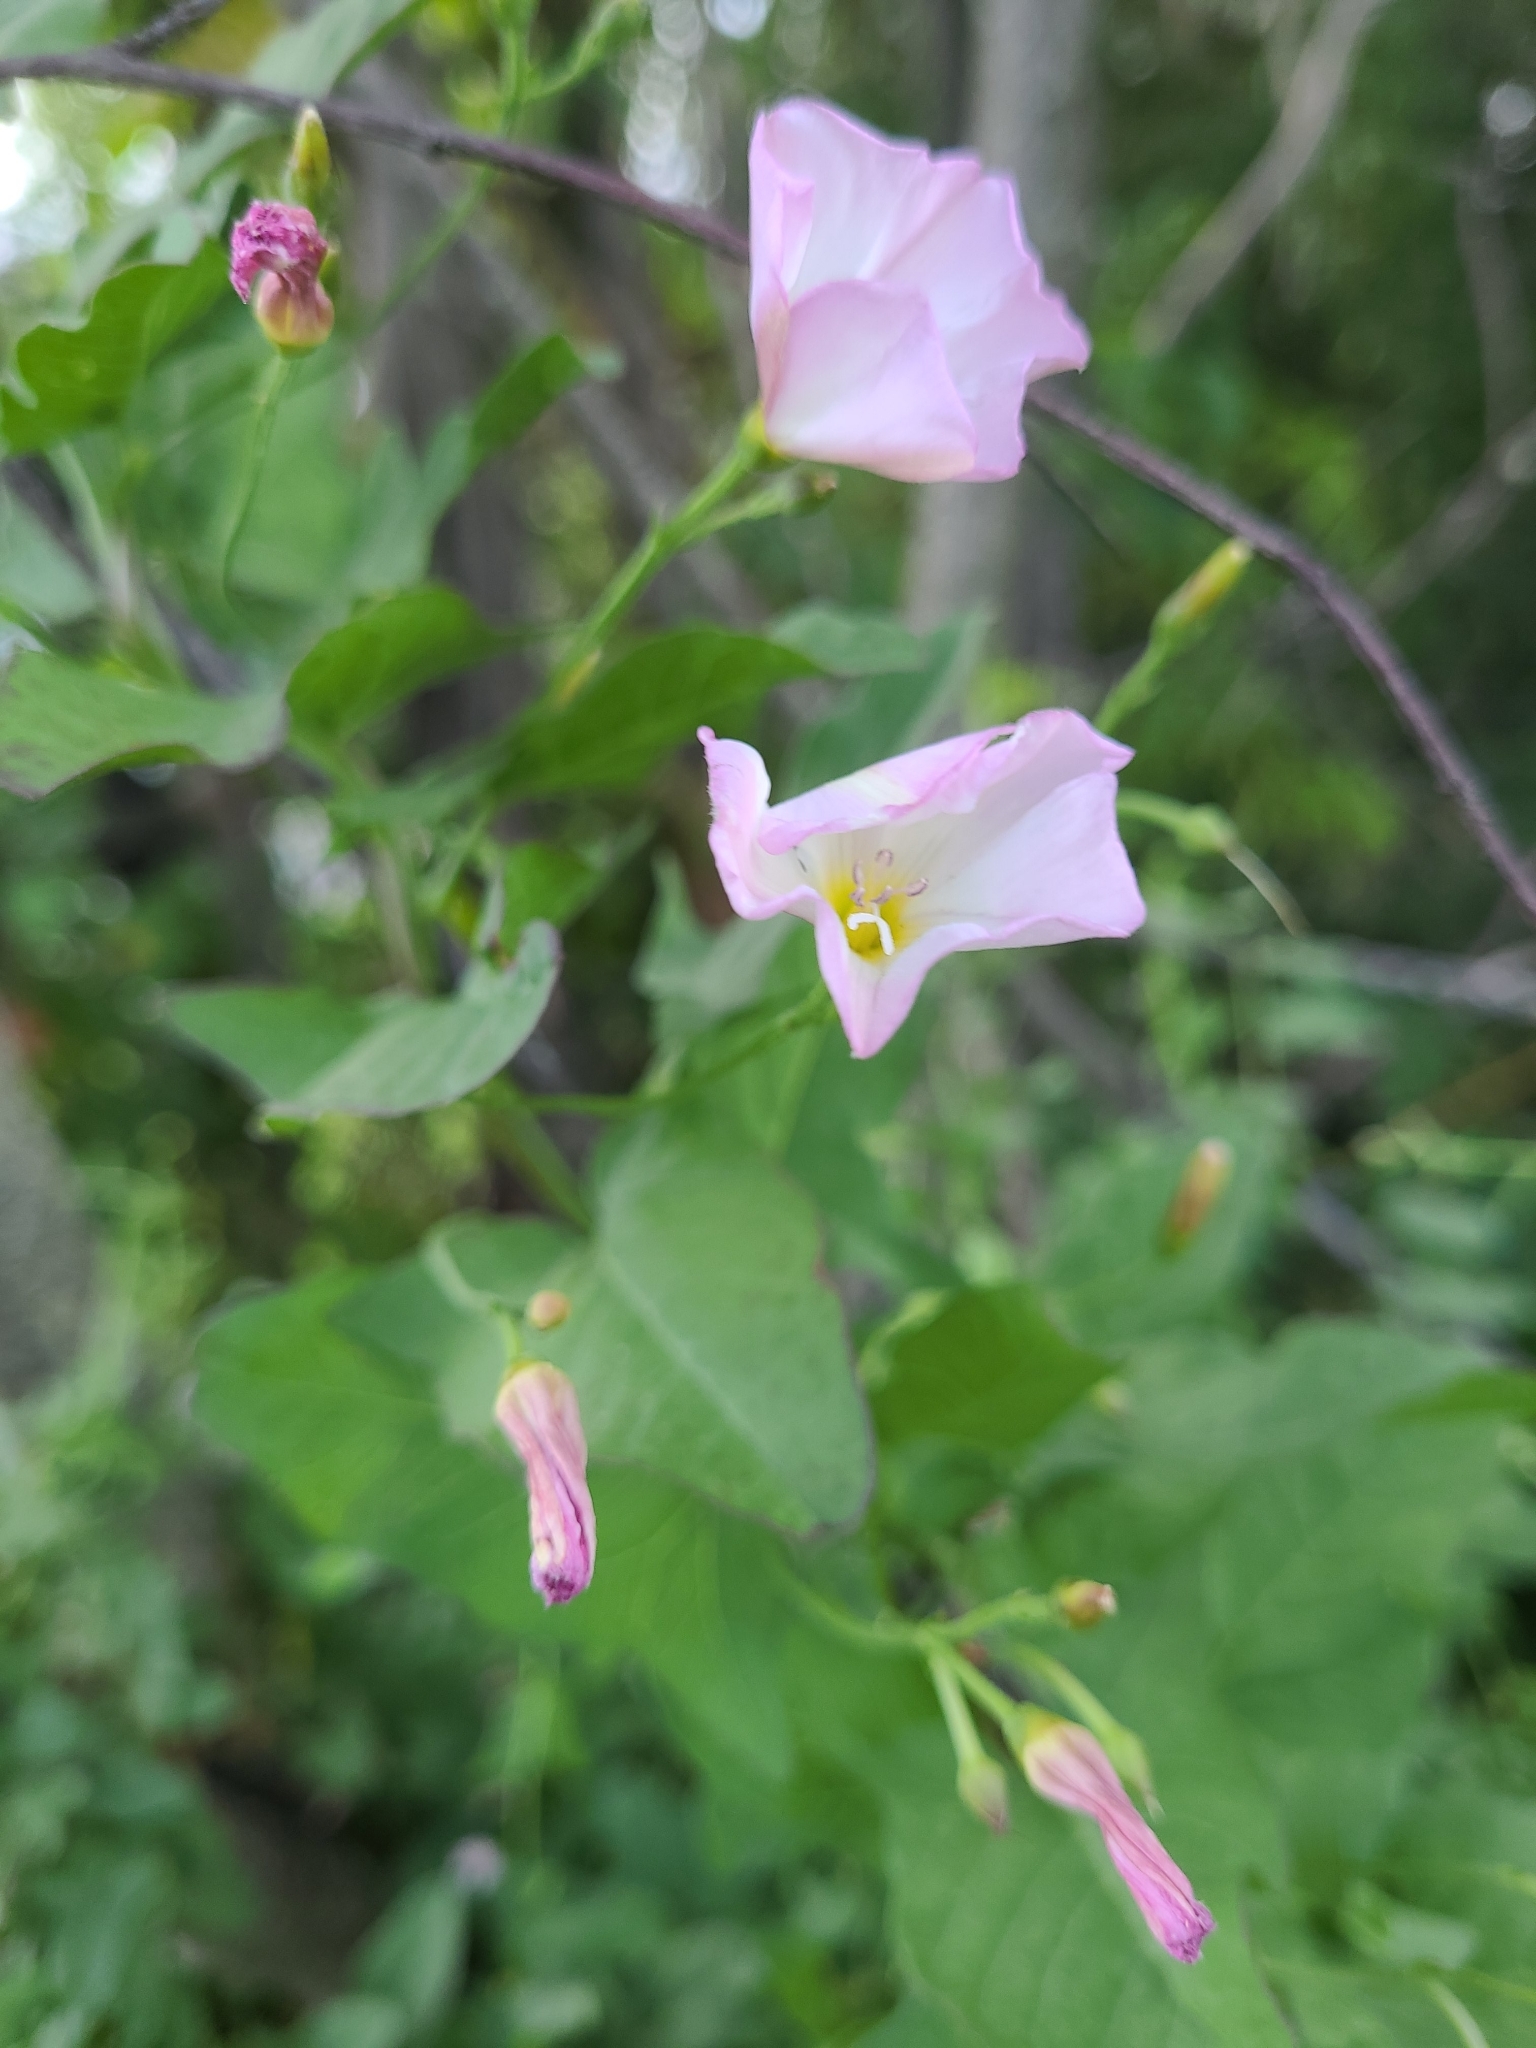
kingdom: Plantae
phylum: Tracheophyta
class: Magnoliopsida
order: Solanales
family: Convolvulaceae
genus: Convolvulus
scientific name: Convolvulus arvensis
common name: Field bindweed
